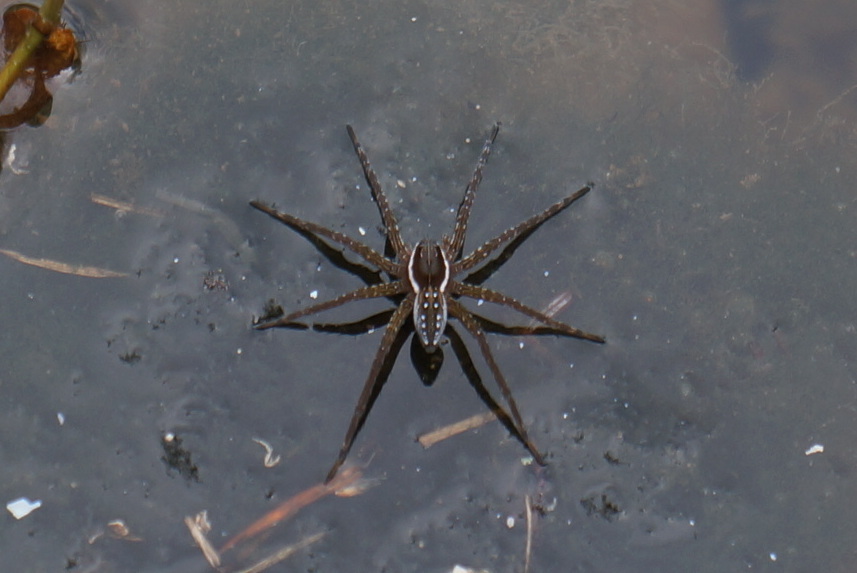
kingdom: Animalia
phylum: Arthropoda
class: Arachnida
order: Araneae
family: Pisauridae
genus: Dolomedes
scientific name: Dolomedes triton
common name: Six-spotted fishing spider
